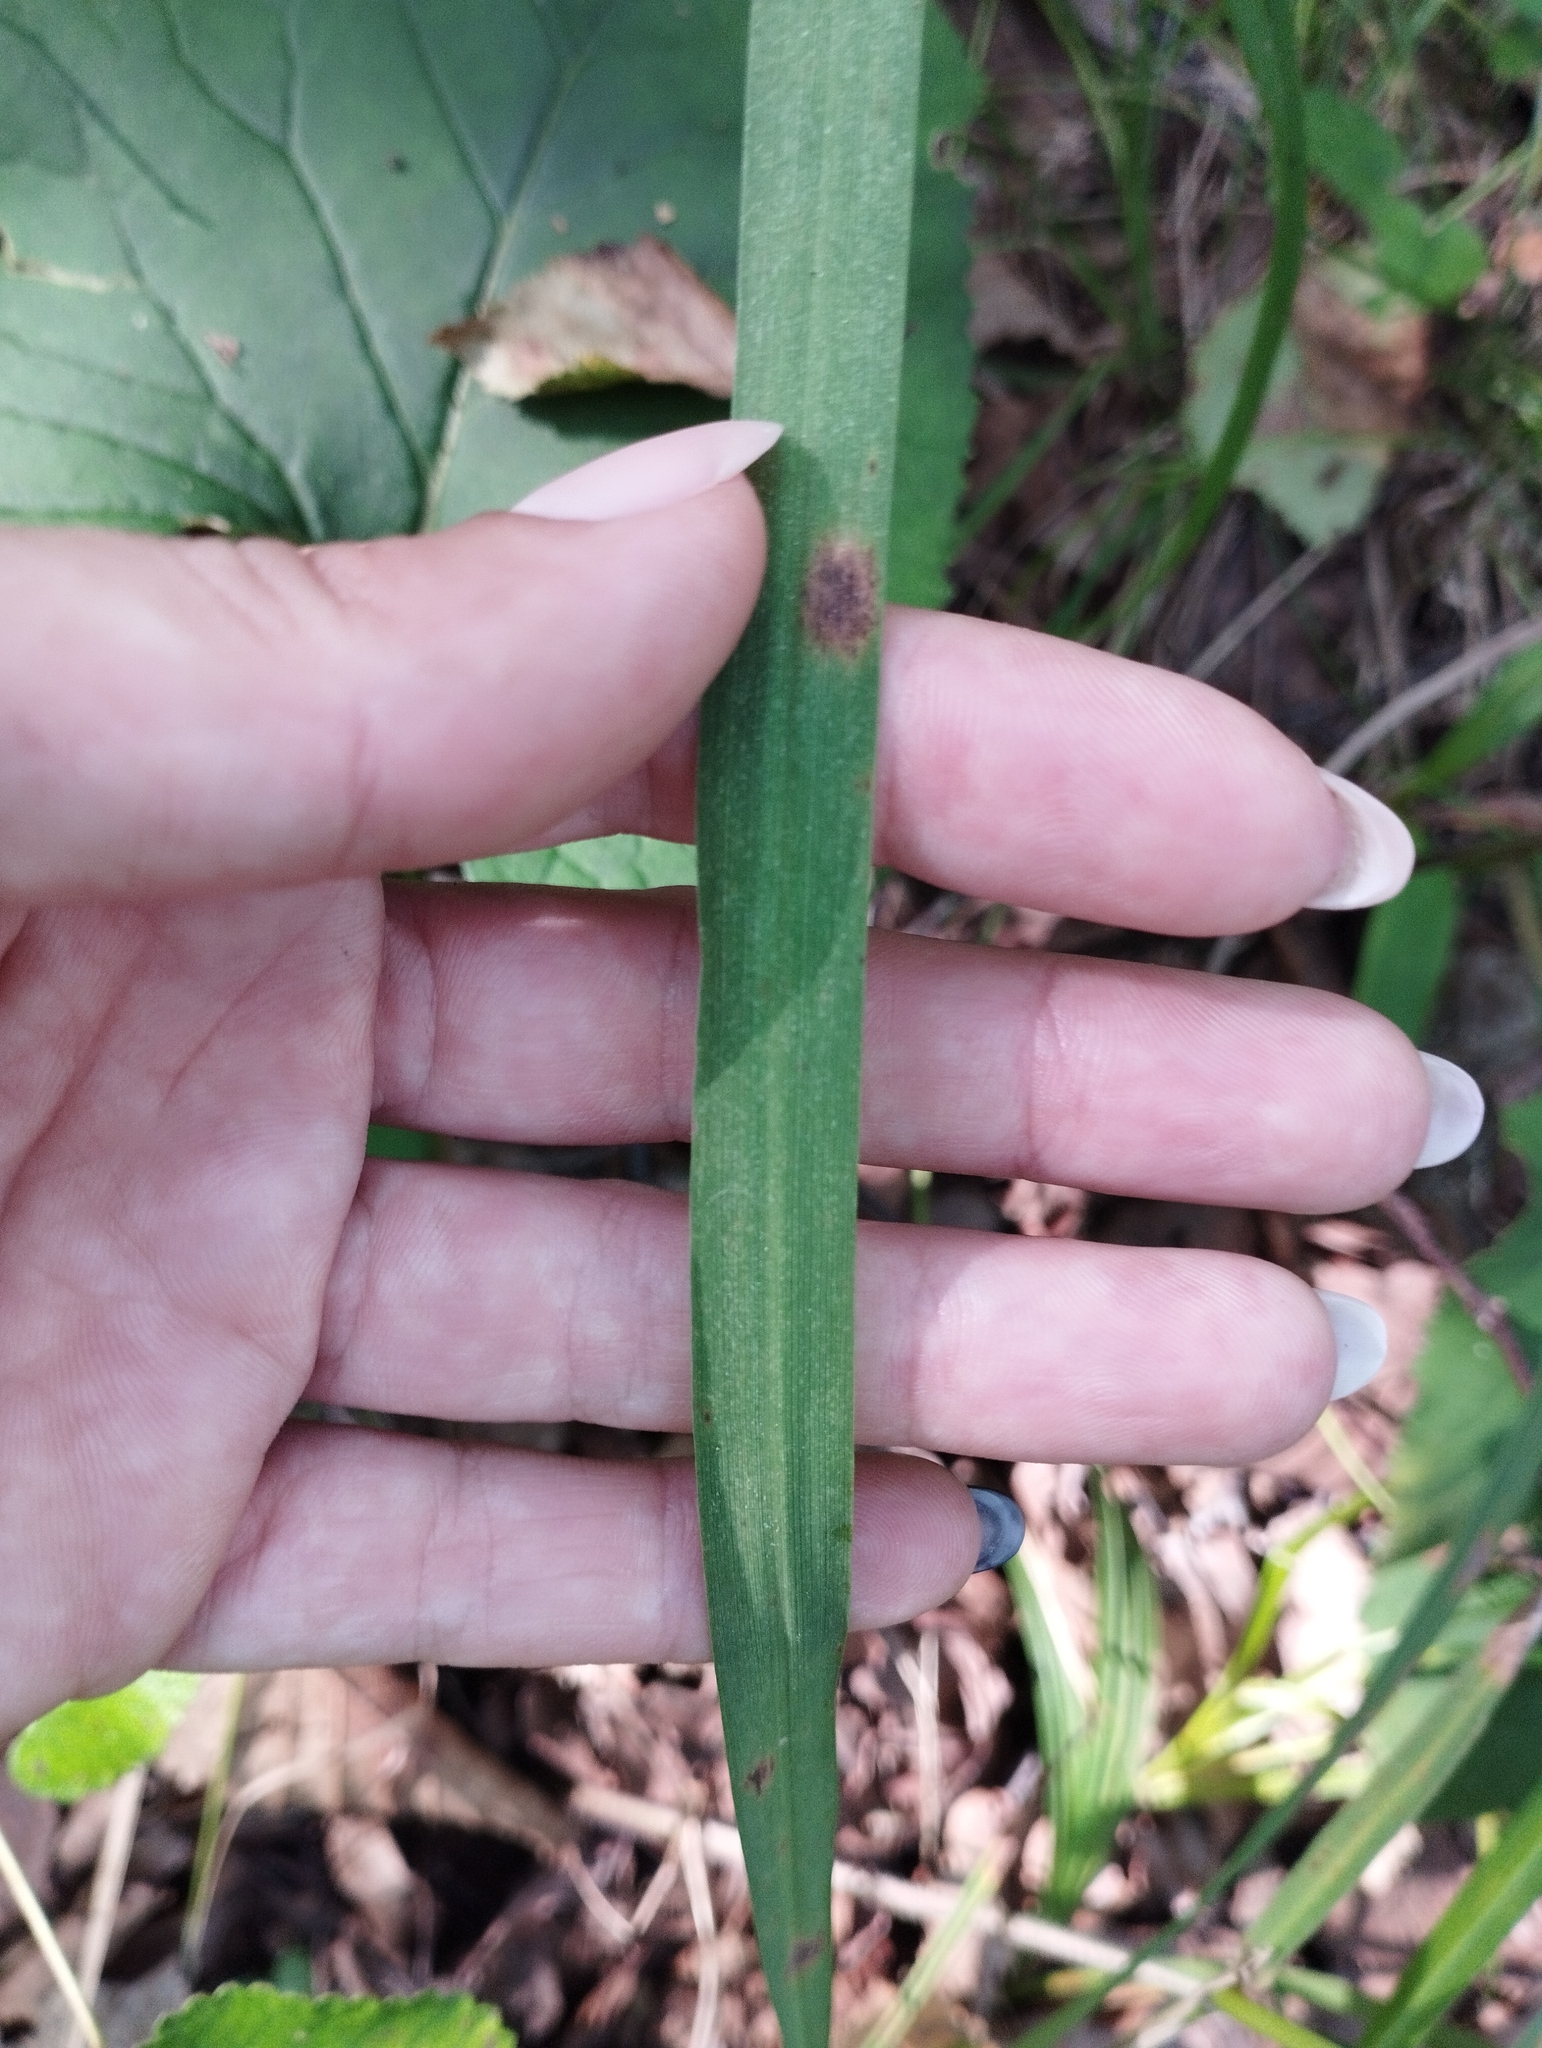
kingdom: Plantae
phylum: Tracheophyta
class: Liliopsida
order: Poales
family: Poaceae
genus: Calamagrostis
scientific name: Calamagrostis arundinacea
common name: Metskastik
